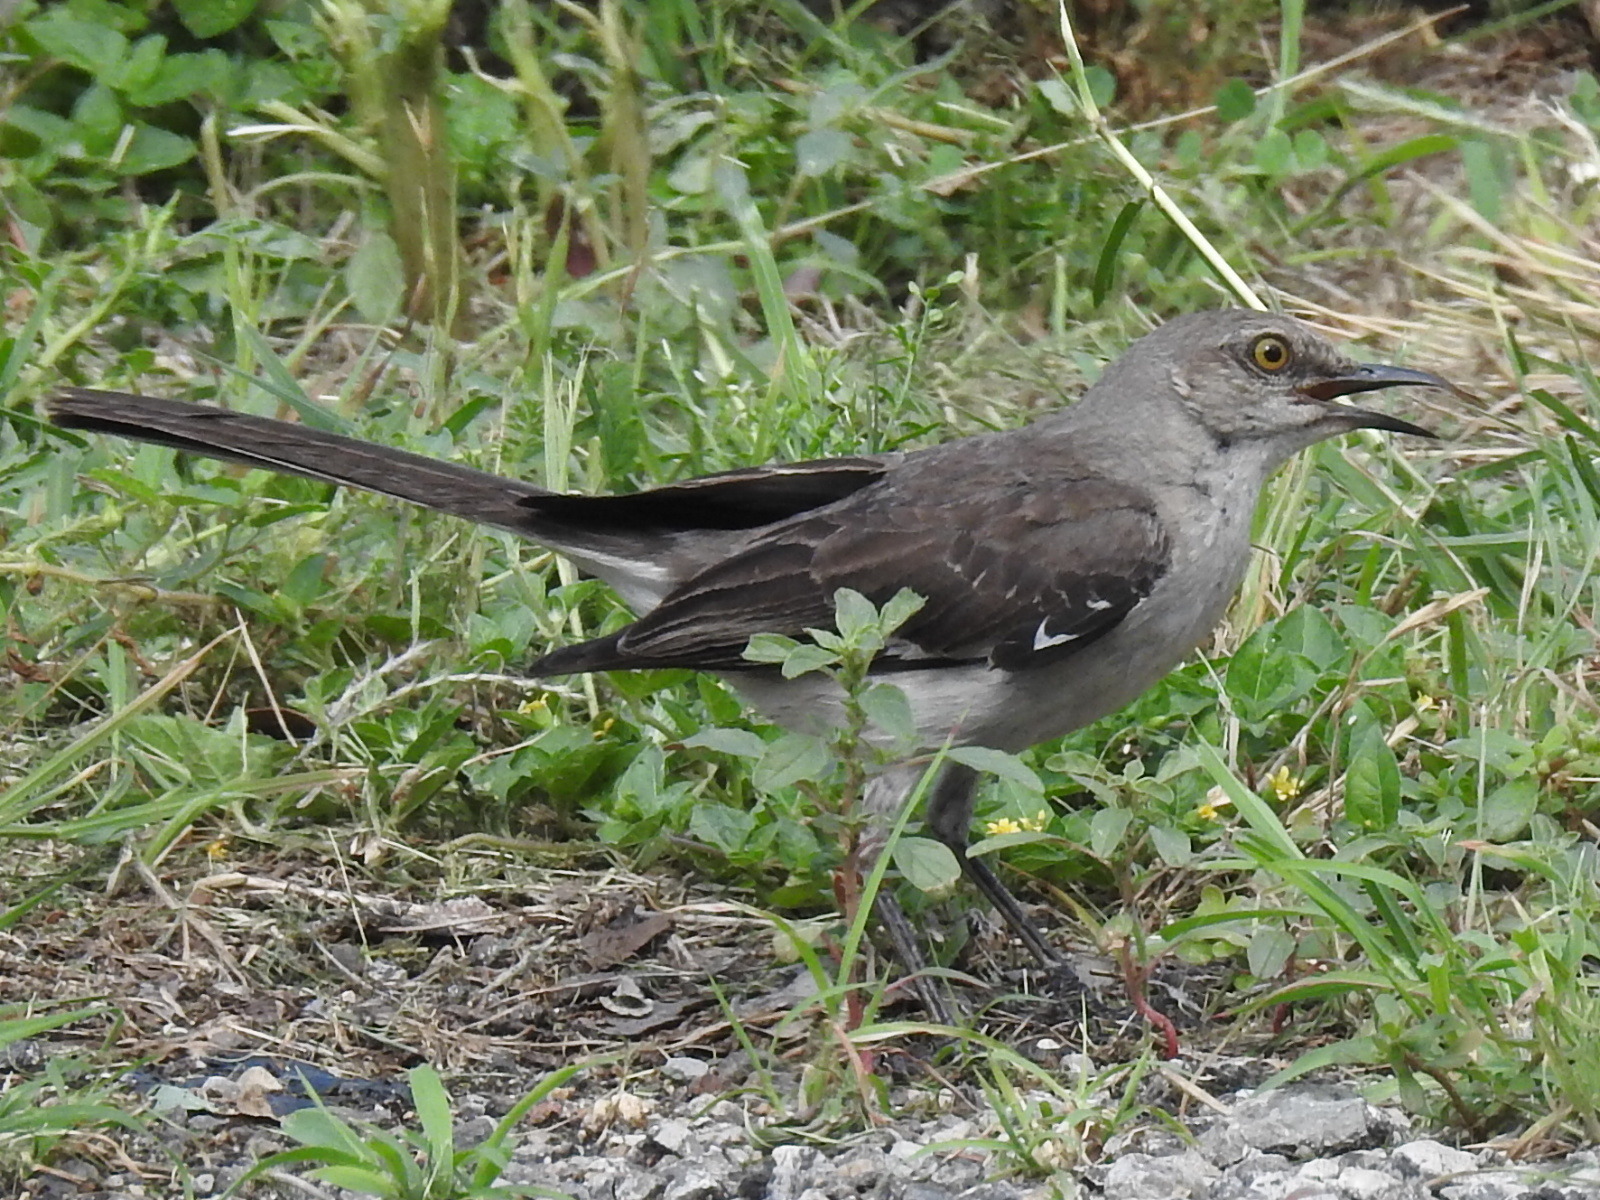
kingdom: Animalia
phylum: Chordata
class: Aves
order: Passeriformes
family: Mimidae
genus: Mimus
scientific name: Mimus polyglottos
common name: Northern mockingbird
